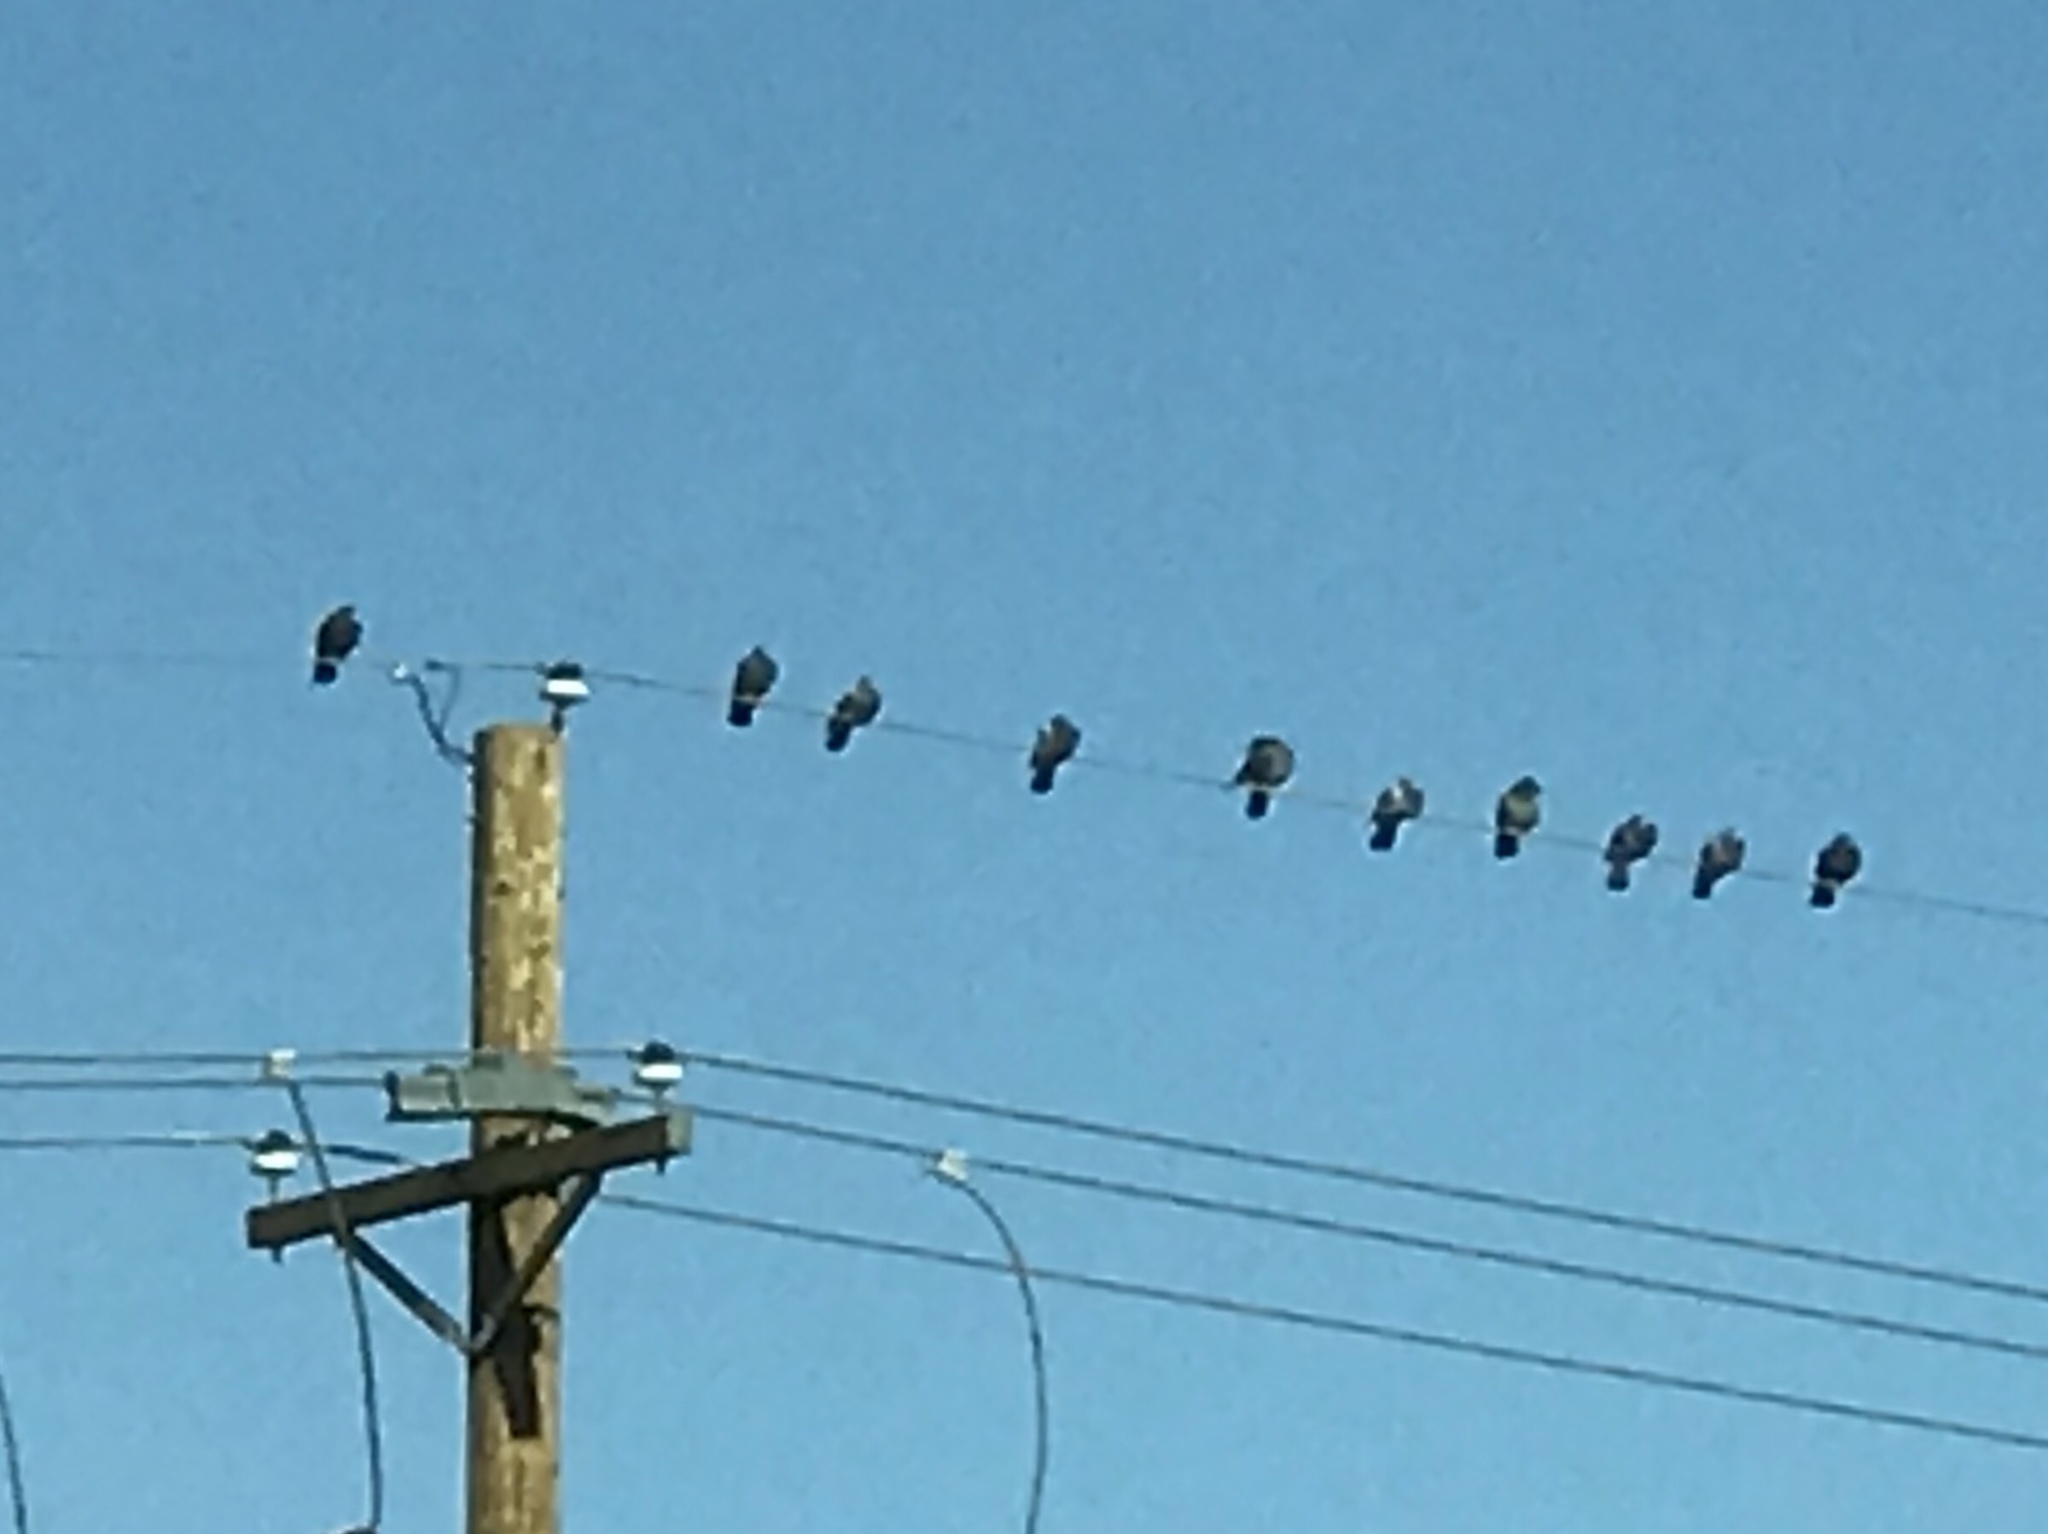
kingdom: Animalia
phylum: Chordata
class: Aves
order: Columbiformes
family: Columbidae
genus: Columba
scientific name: Columba livia
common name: Rock pigeon
